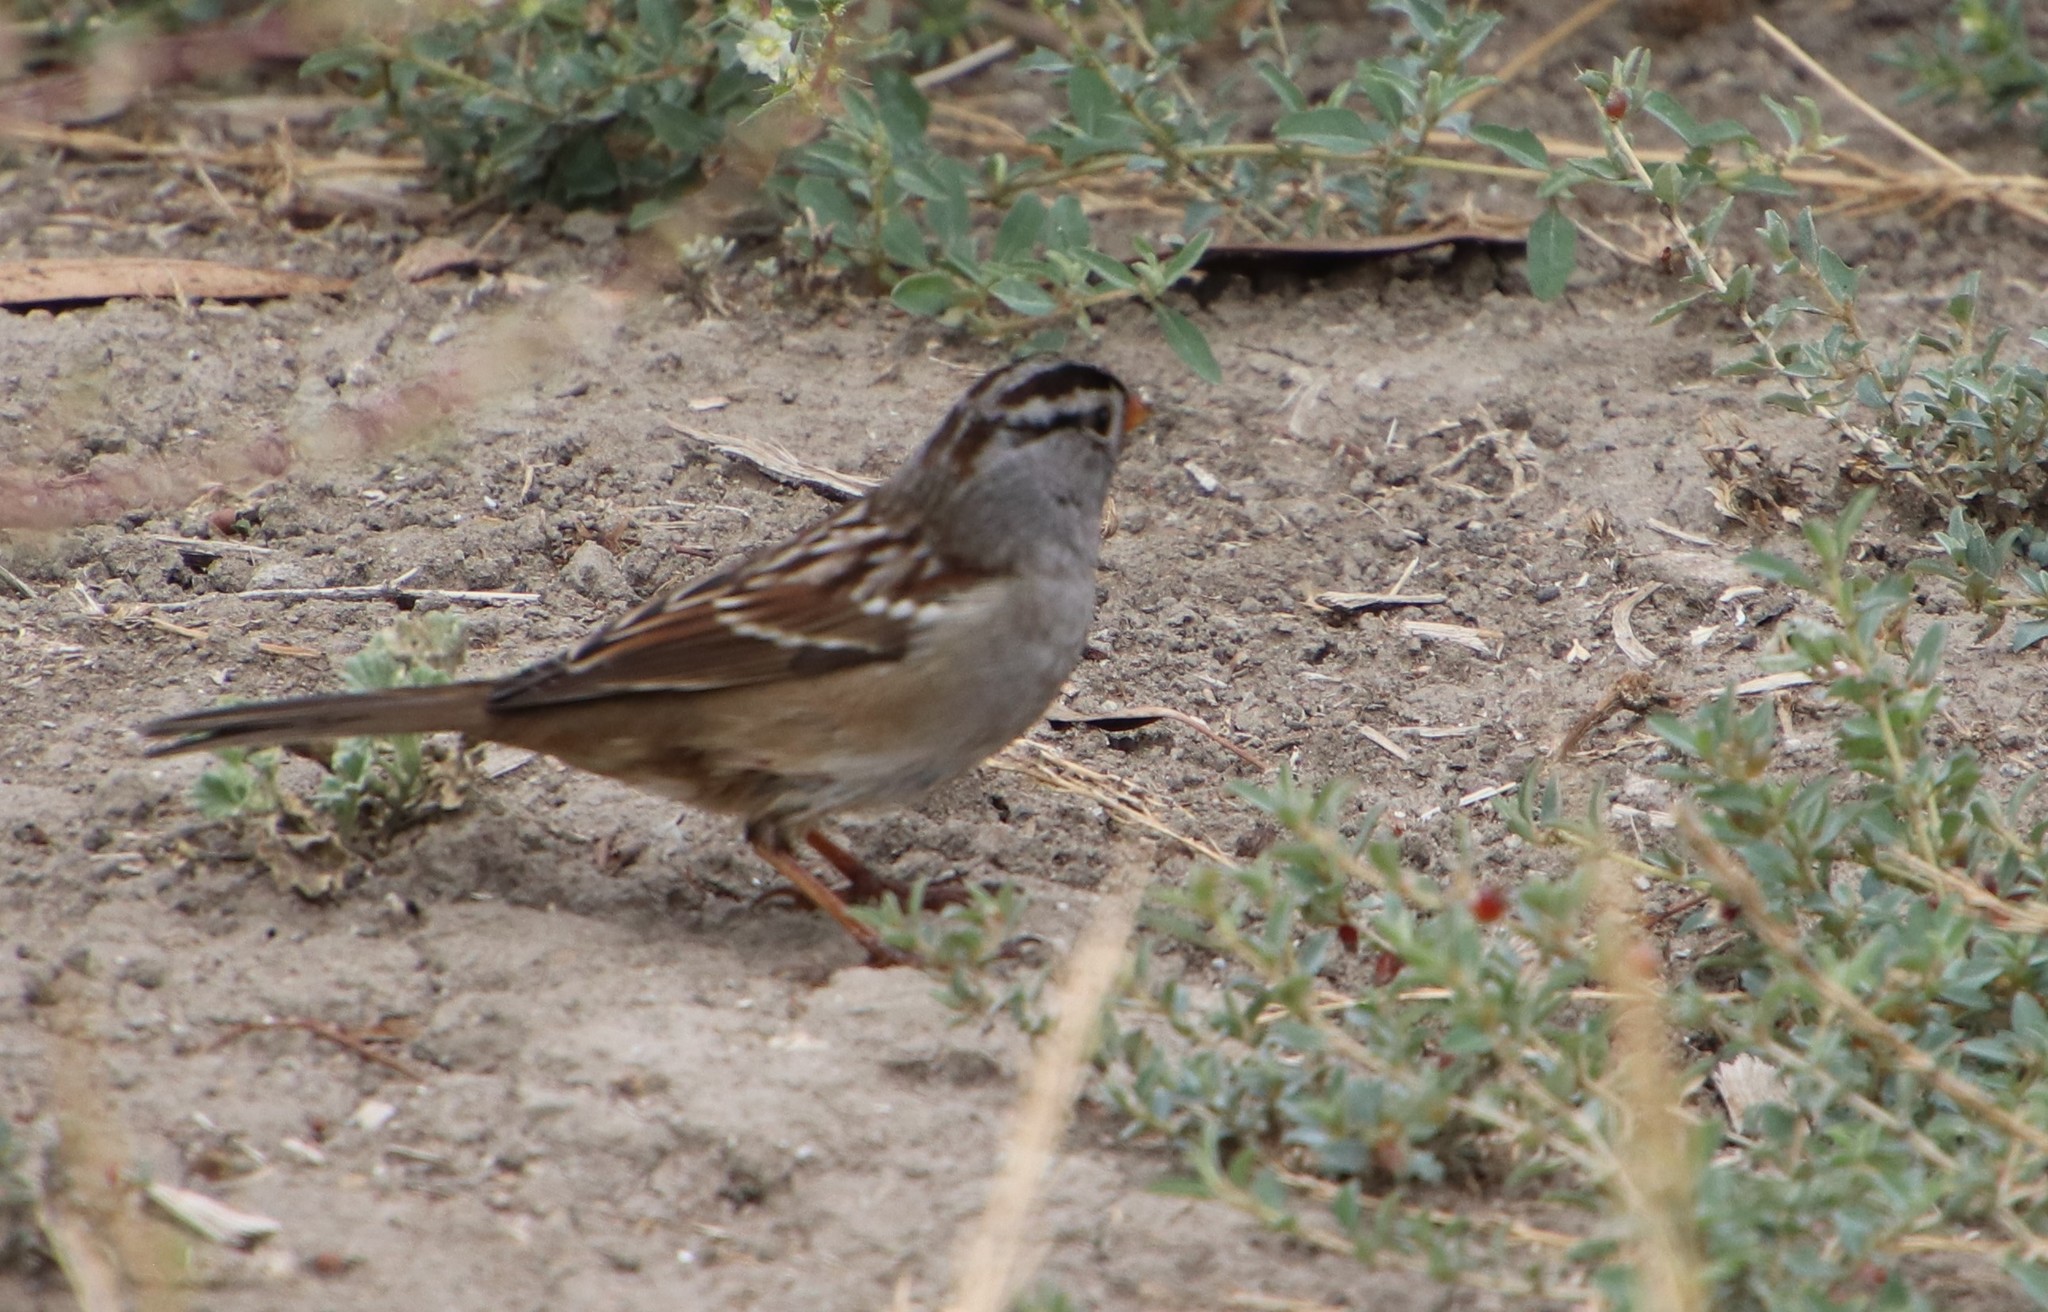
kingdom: Animalia
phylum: Chordata
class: Aves
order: Passeriformes
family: Passerellidae
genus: Zonotrichia
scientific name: Zonotrichia leucophrys
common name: White-crowned sparrow
